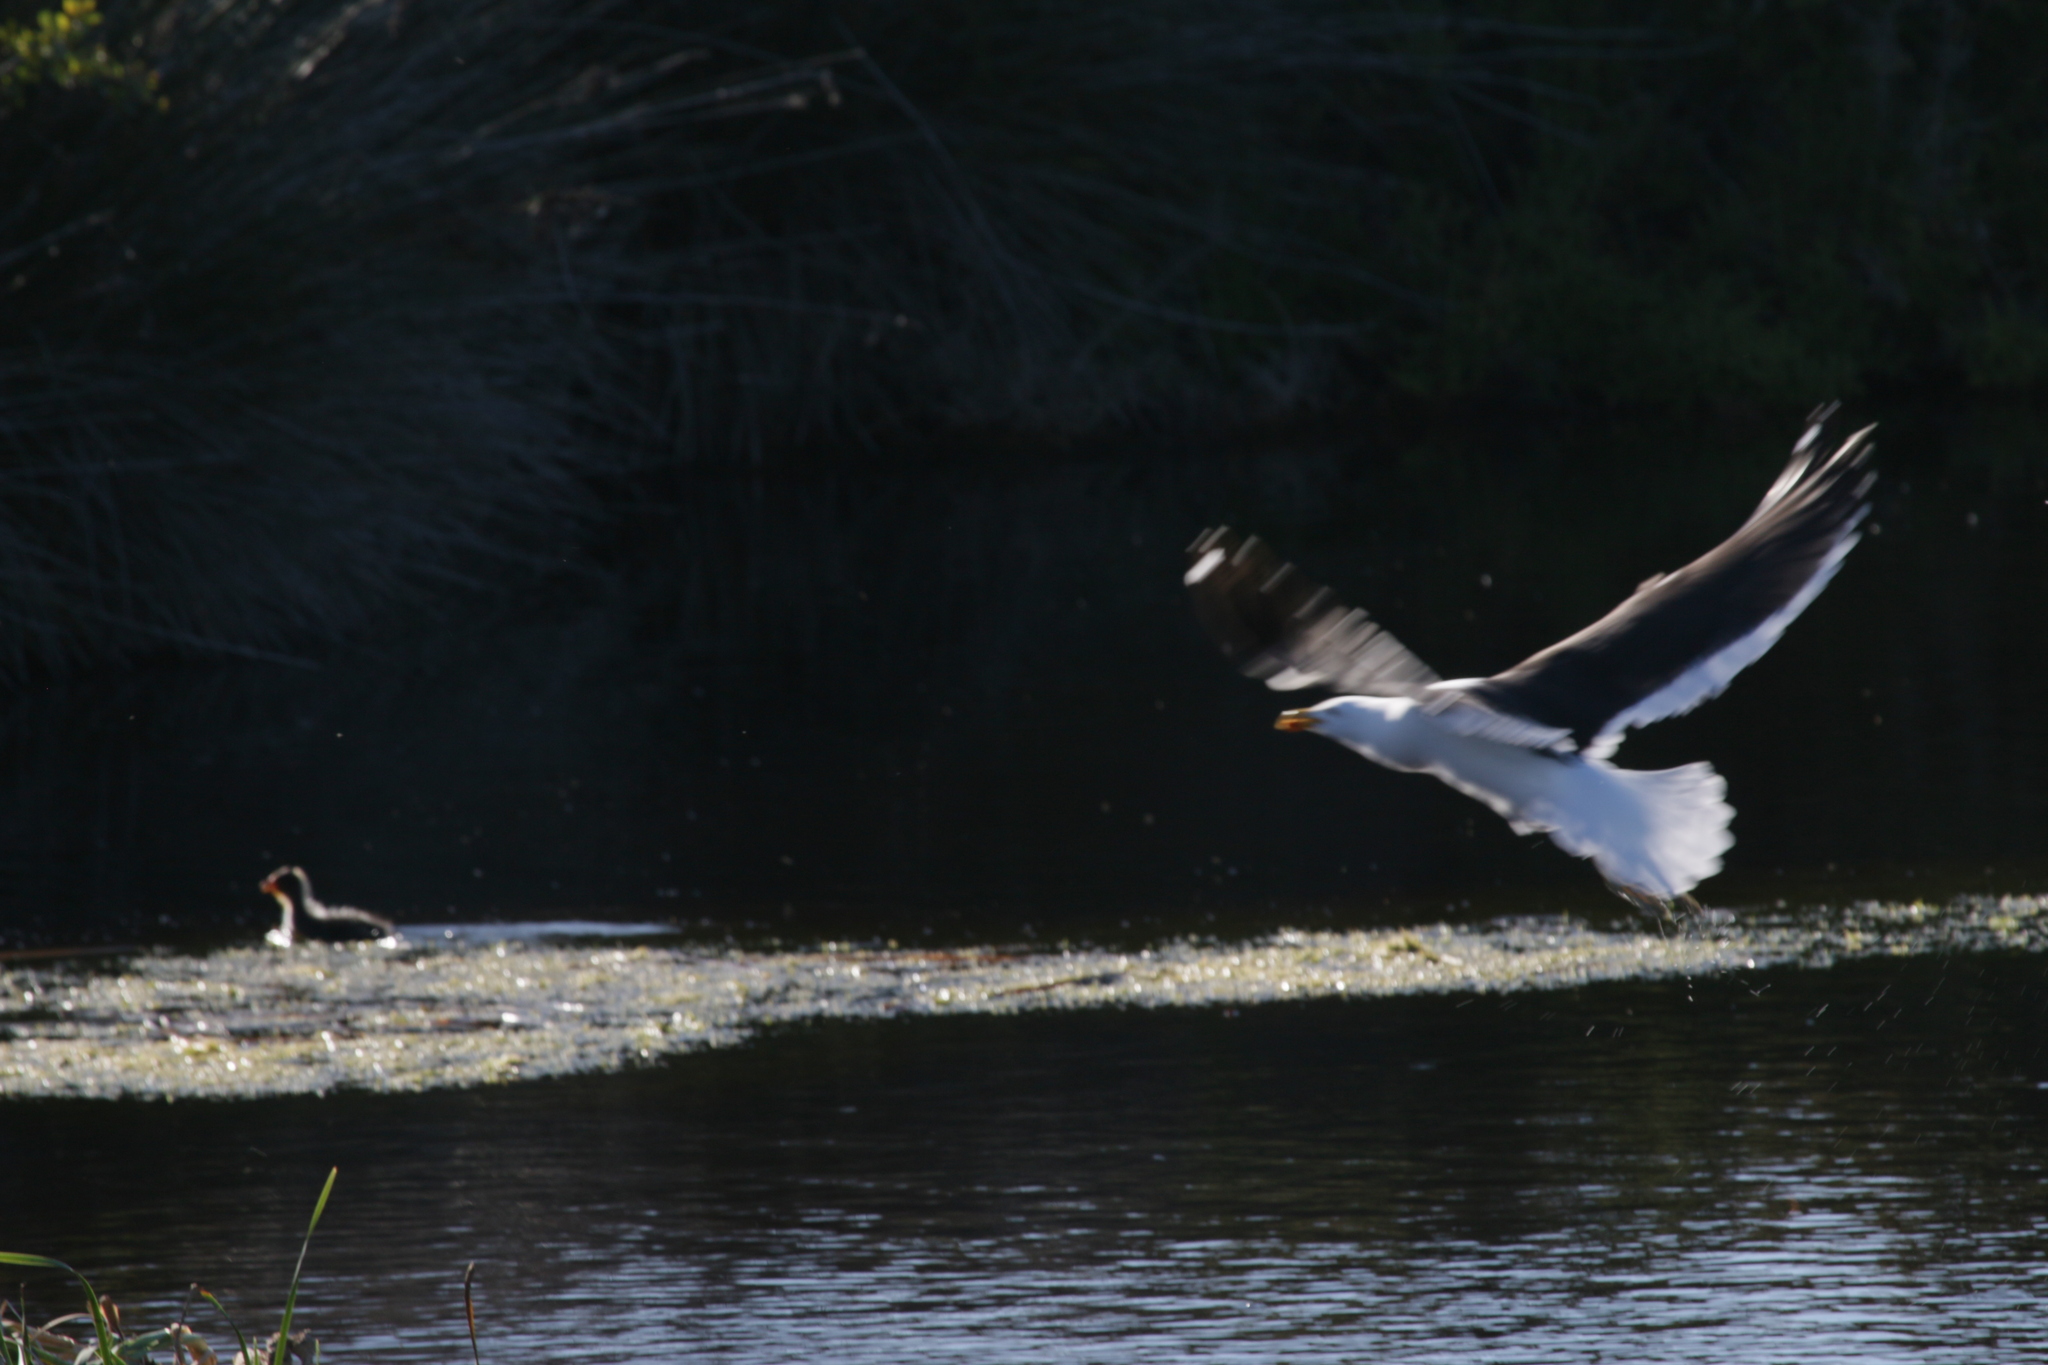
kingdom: Animalia
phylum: Chordata
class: Aves
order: Gruiformes
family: Rallidae
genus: Fulica
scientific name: Fulica cristata
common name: Red-knobbed coot
